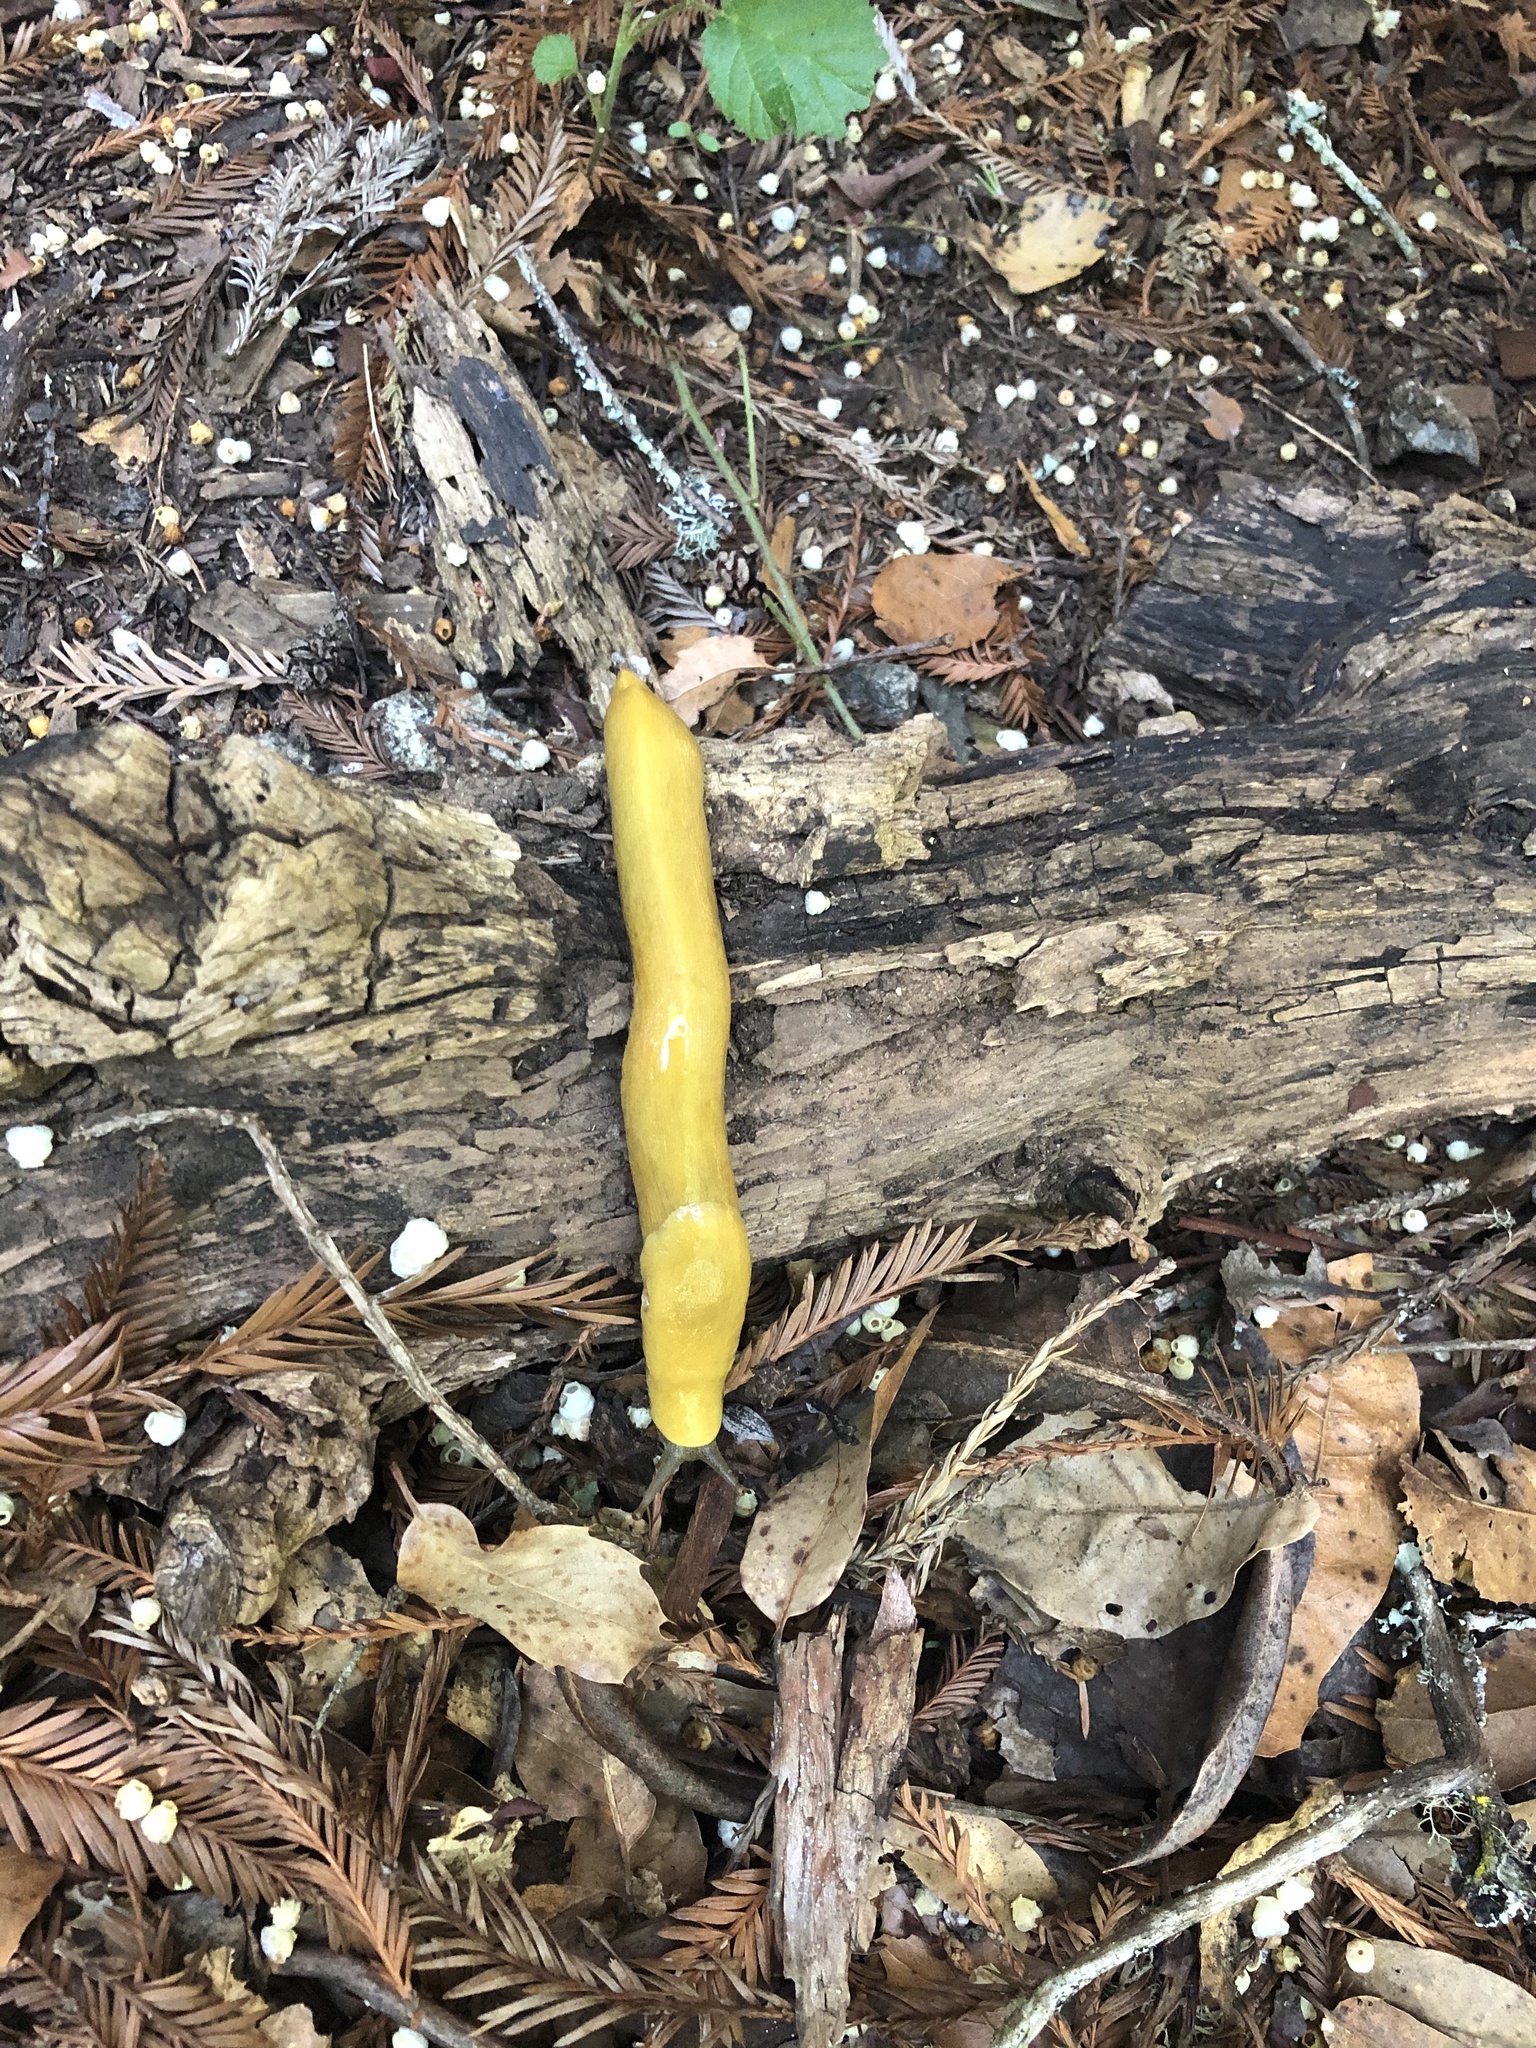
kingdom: Animalia
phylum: Mollusca
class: Gastropoda
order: Stylommatophora
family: Ariolimacidae
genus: Ariolimax
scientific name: Ariolimax dolichophallus
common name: Slender banana slug
